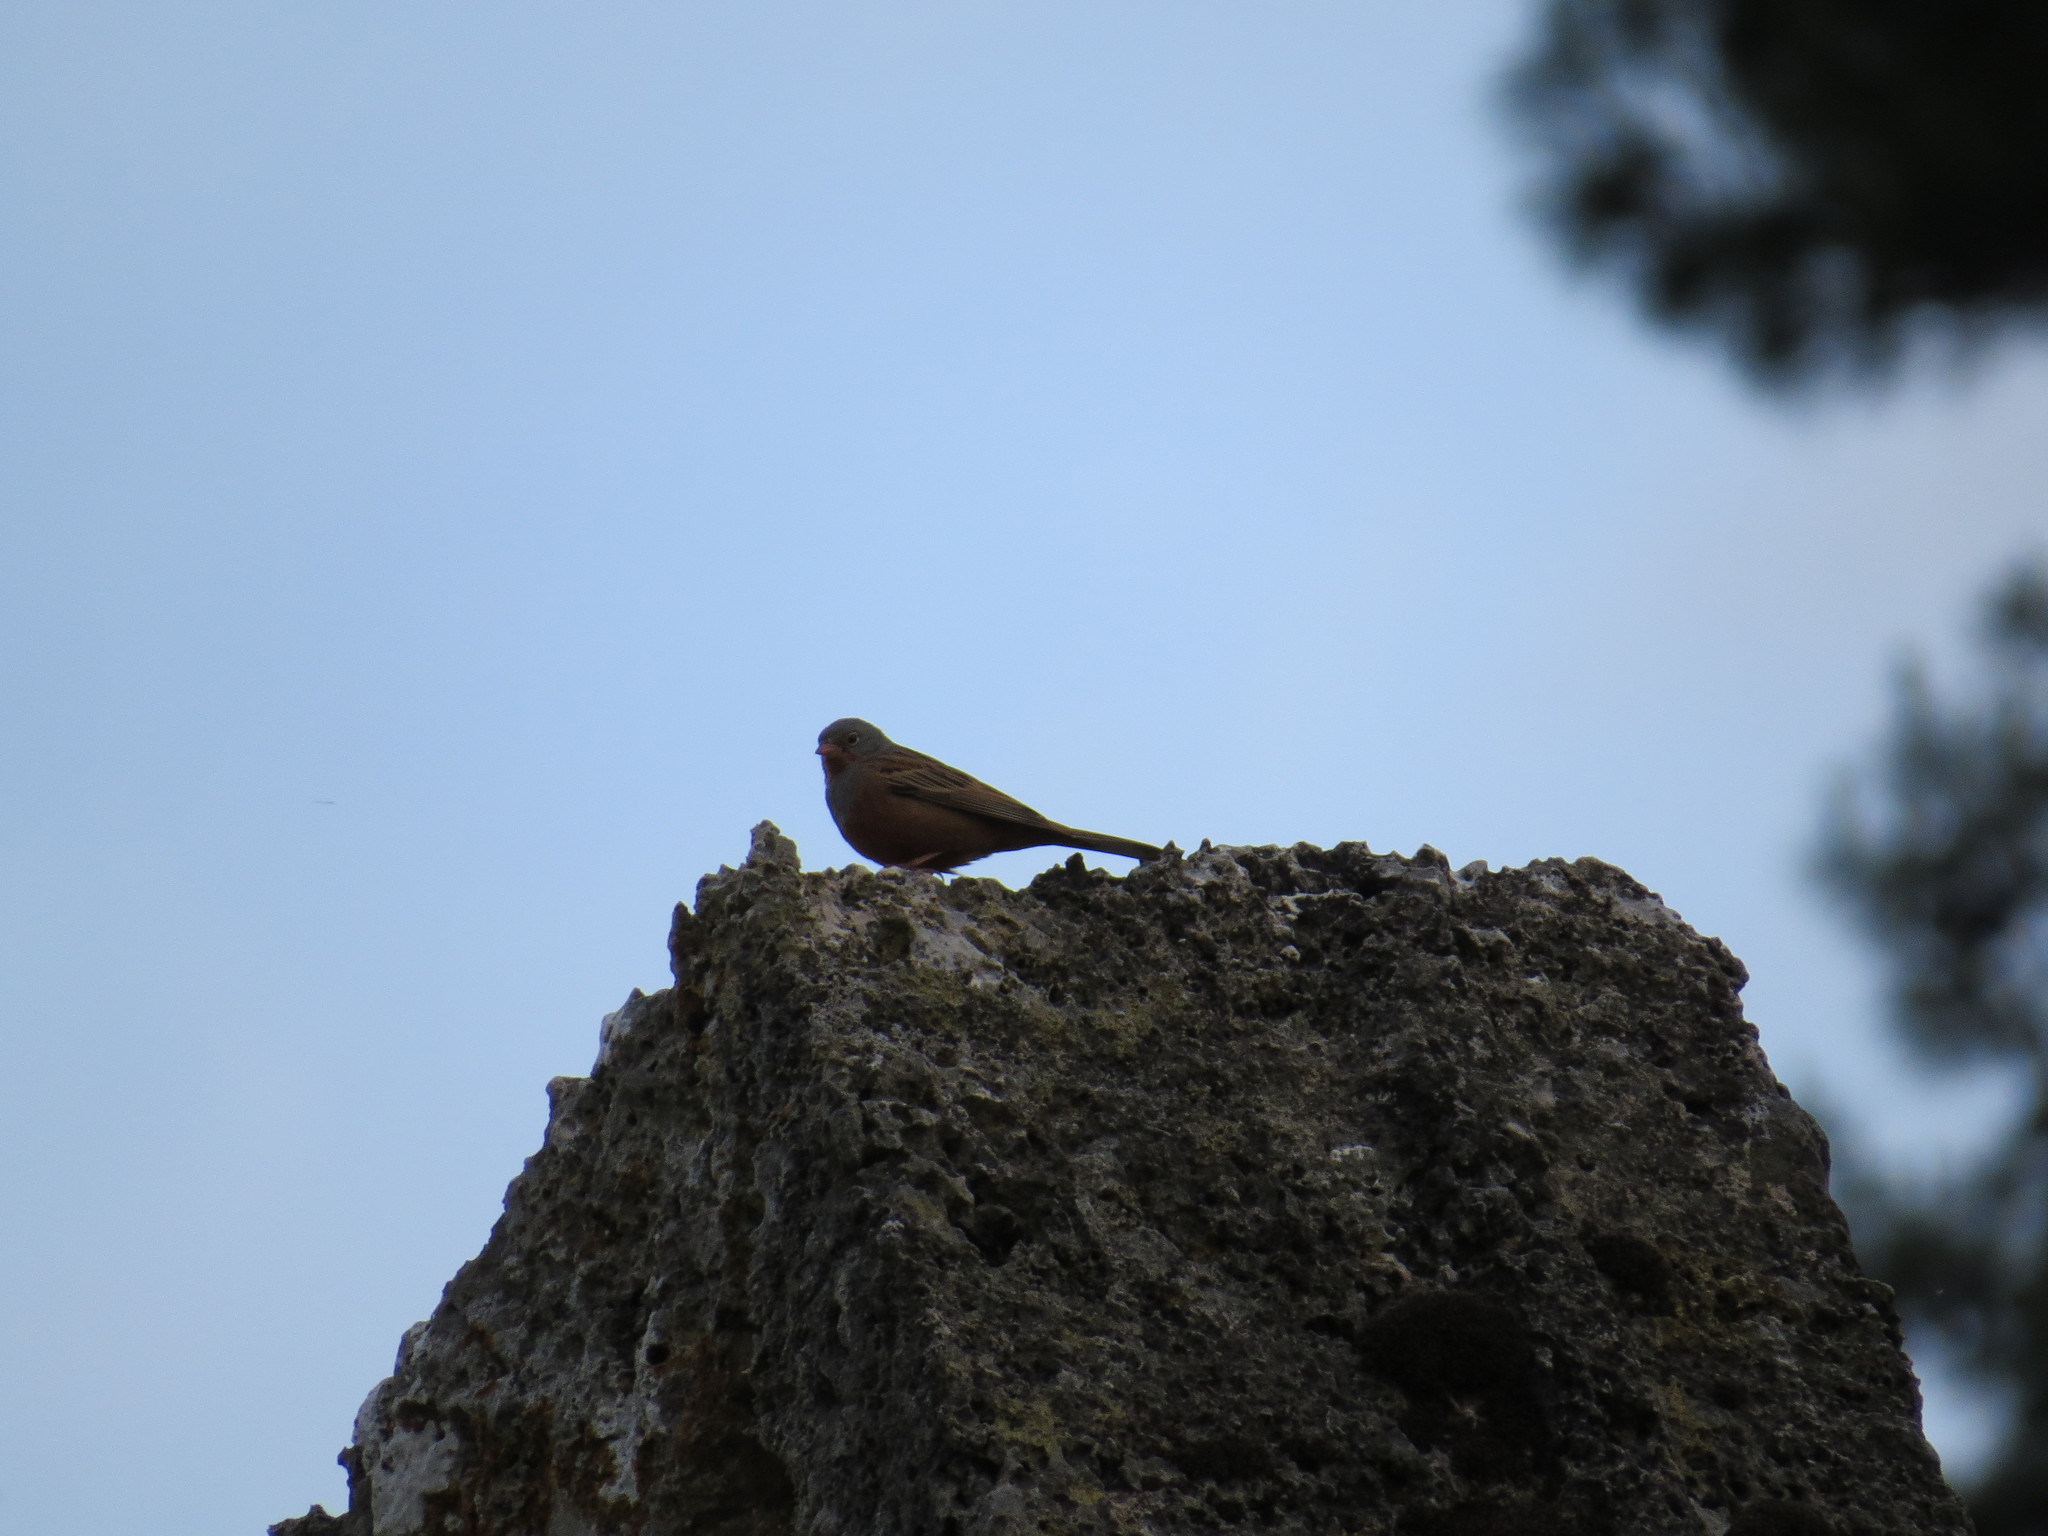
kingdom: Animalia
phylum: Chordata
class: Aves
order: Passeriformes
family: Emberizidae
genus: Emberiza
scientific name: Emberiza caesia
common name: Cretzschmar's bunting
